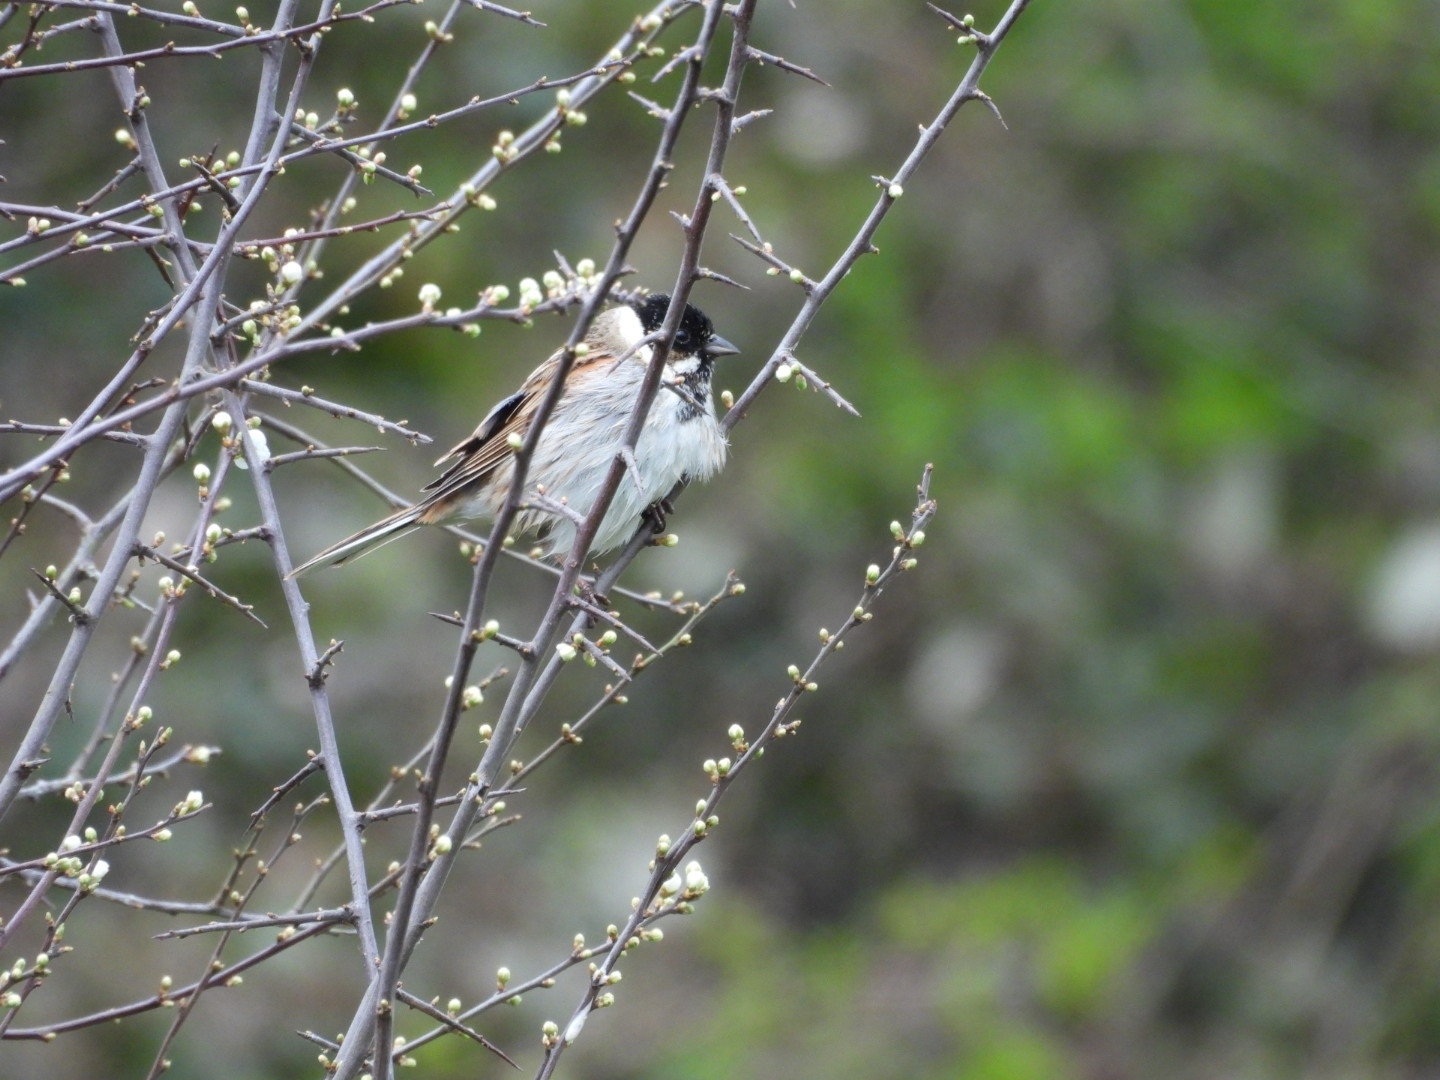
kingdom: Animalia
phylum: Chordata
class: Aves
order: Passeriformes
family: Emberizidae
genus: Emberiza
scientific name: Emberiza schoeniclus
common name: Reed bunting
